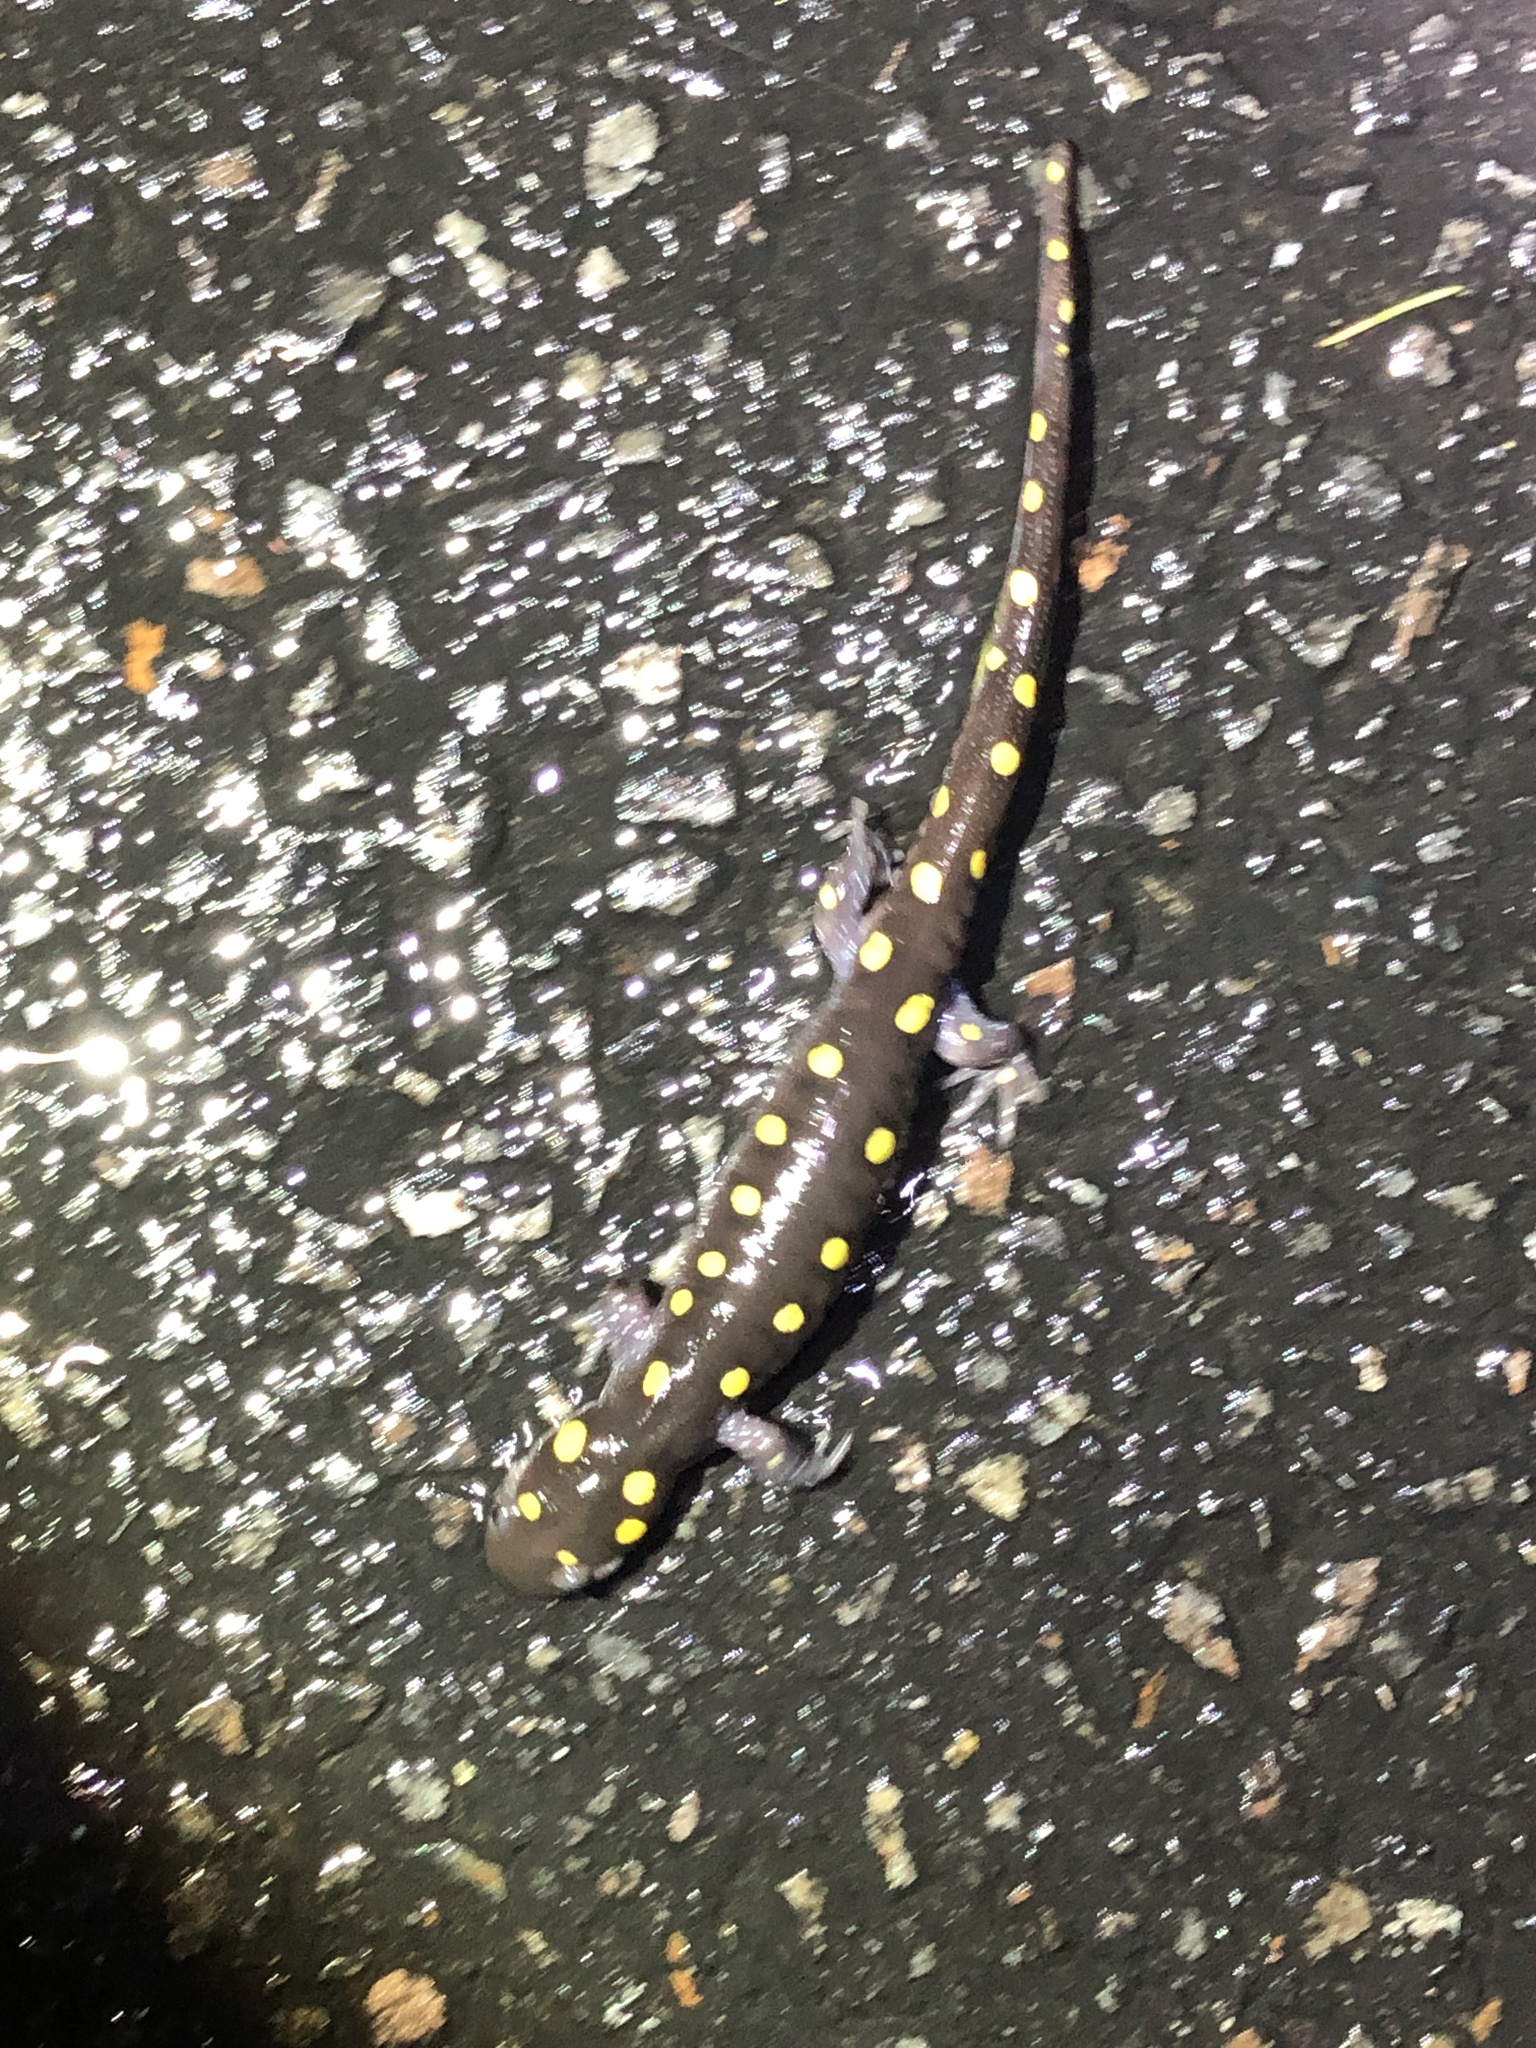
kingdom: Animalia
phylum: Chordata
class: Amphibia
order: Caudata
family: Ambystomatidae
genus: Ambystoma
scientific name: Ambystoma maculatum
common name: Spotted salamander
